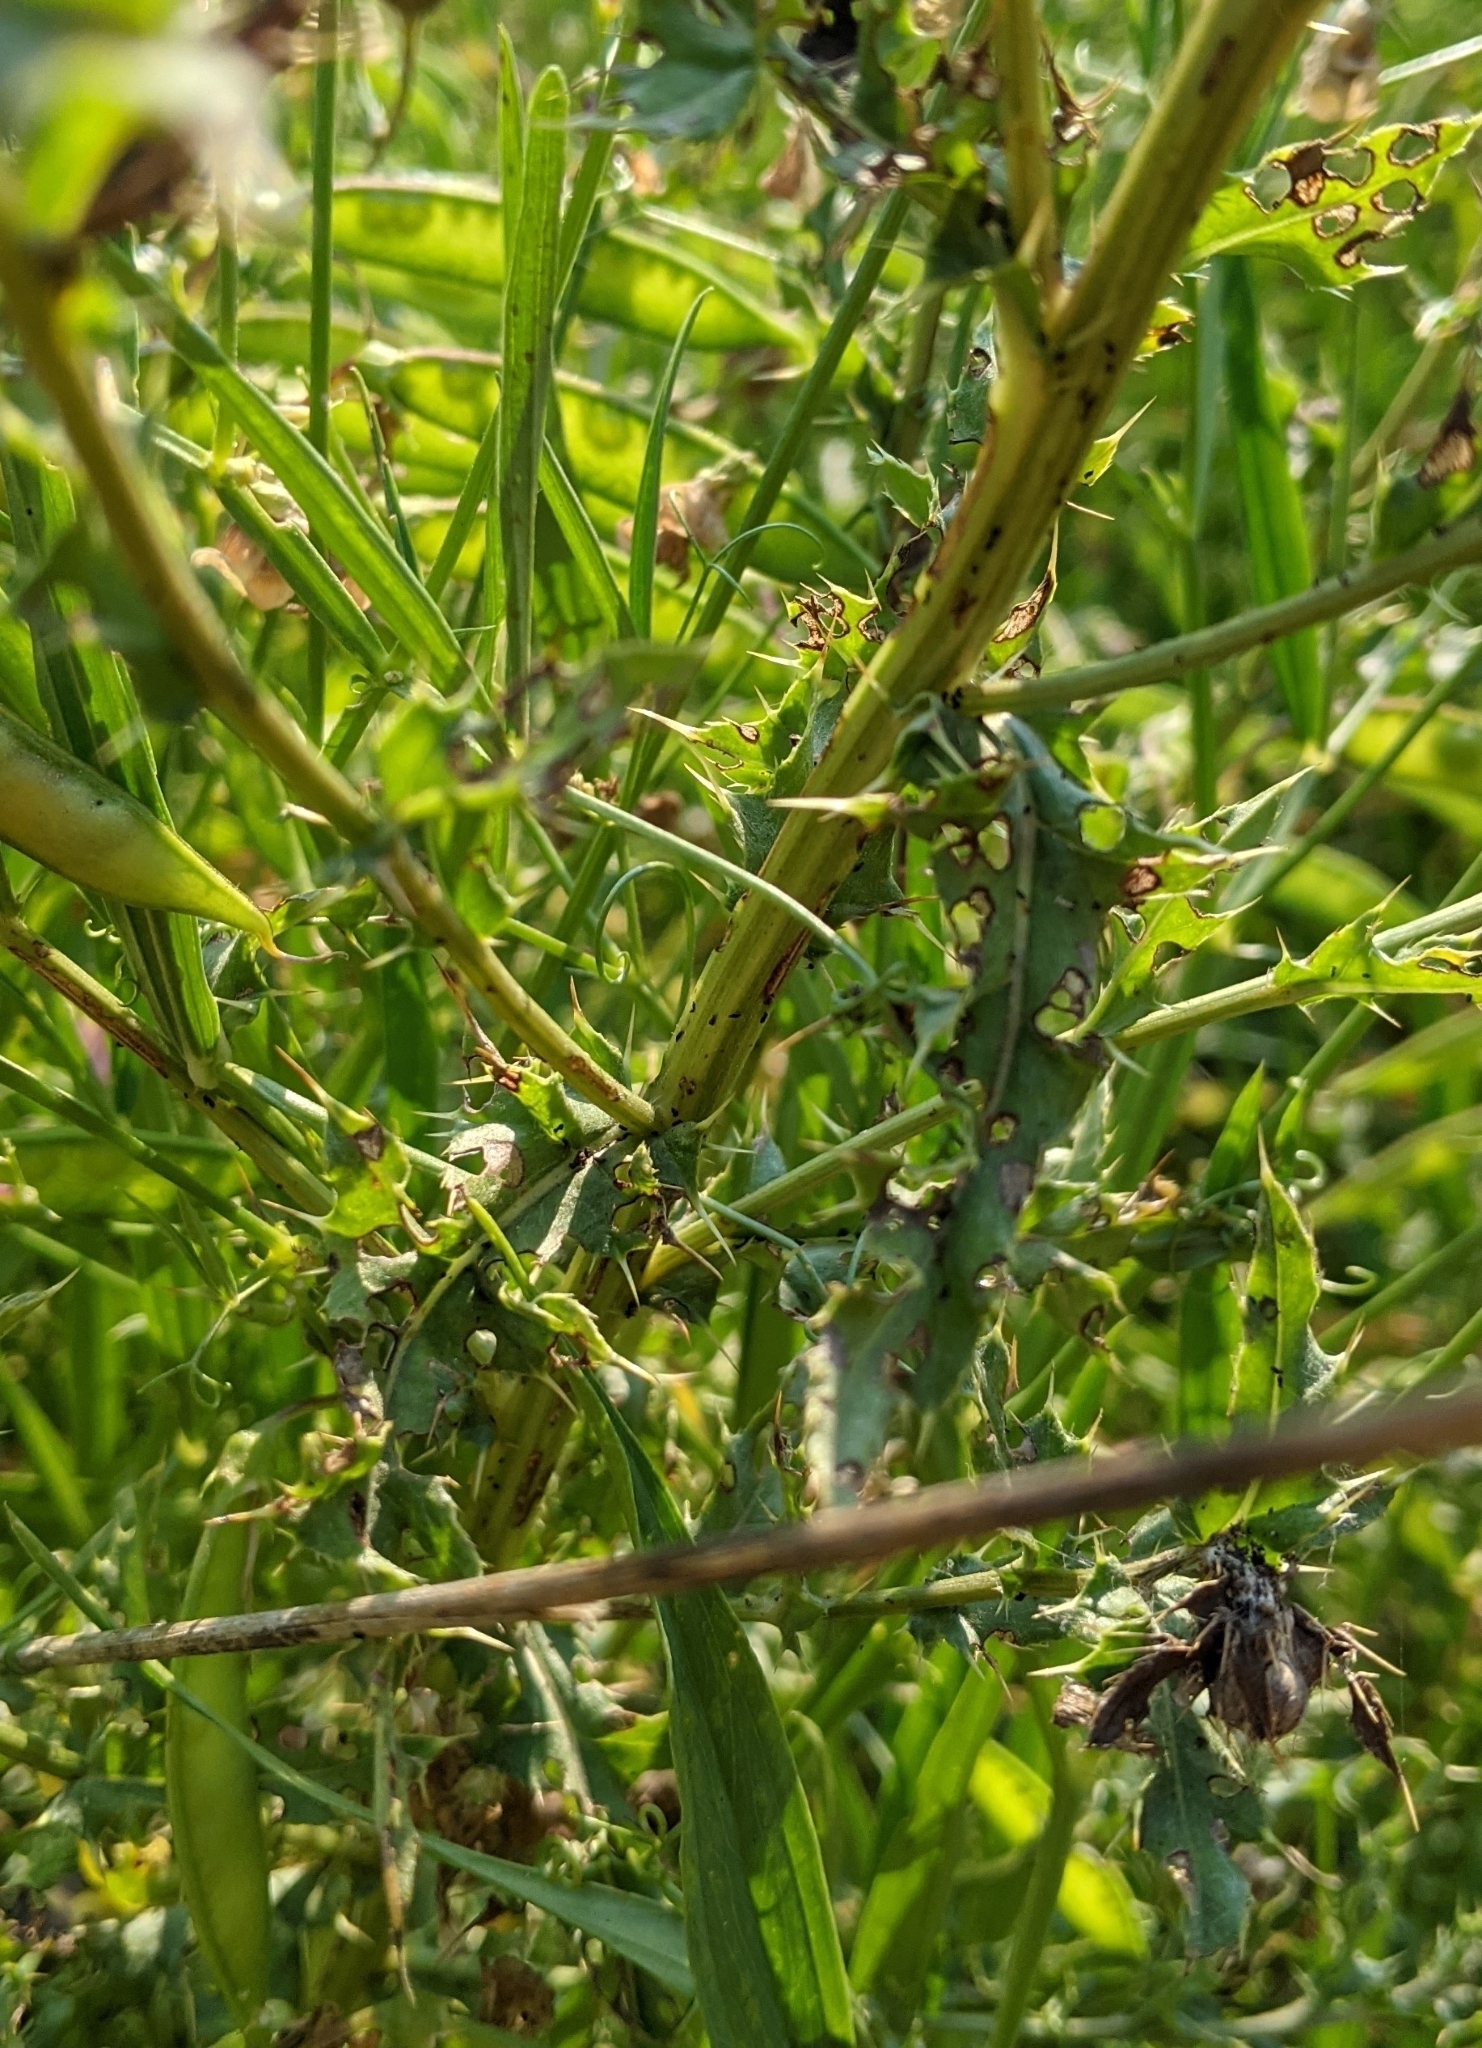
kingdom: Plantae
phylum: Tracheophyta
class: Magnoliopsida
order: Asterales
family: Asteraceae
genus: Cirsium
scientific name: Cirsium arvense
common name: Creeping thistle
